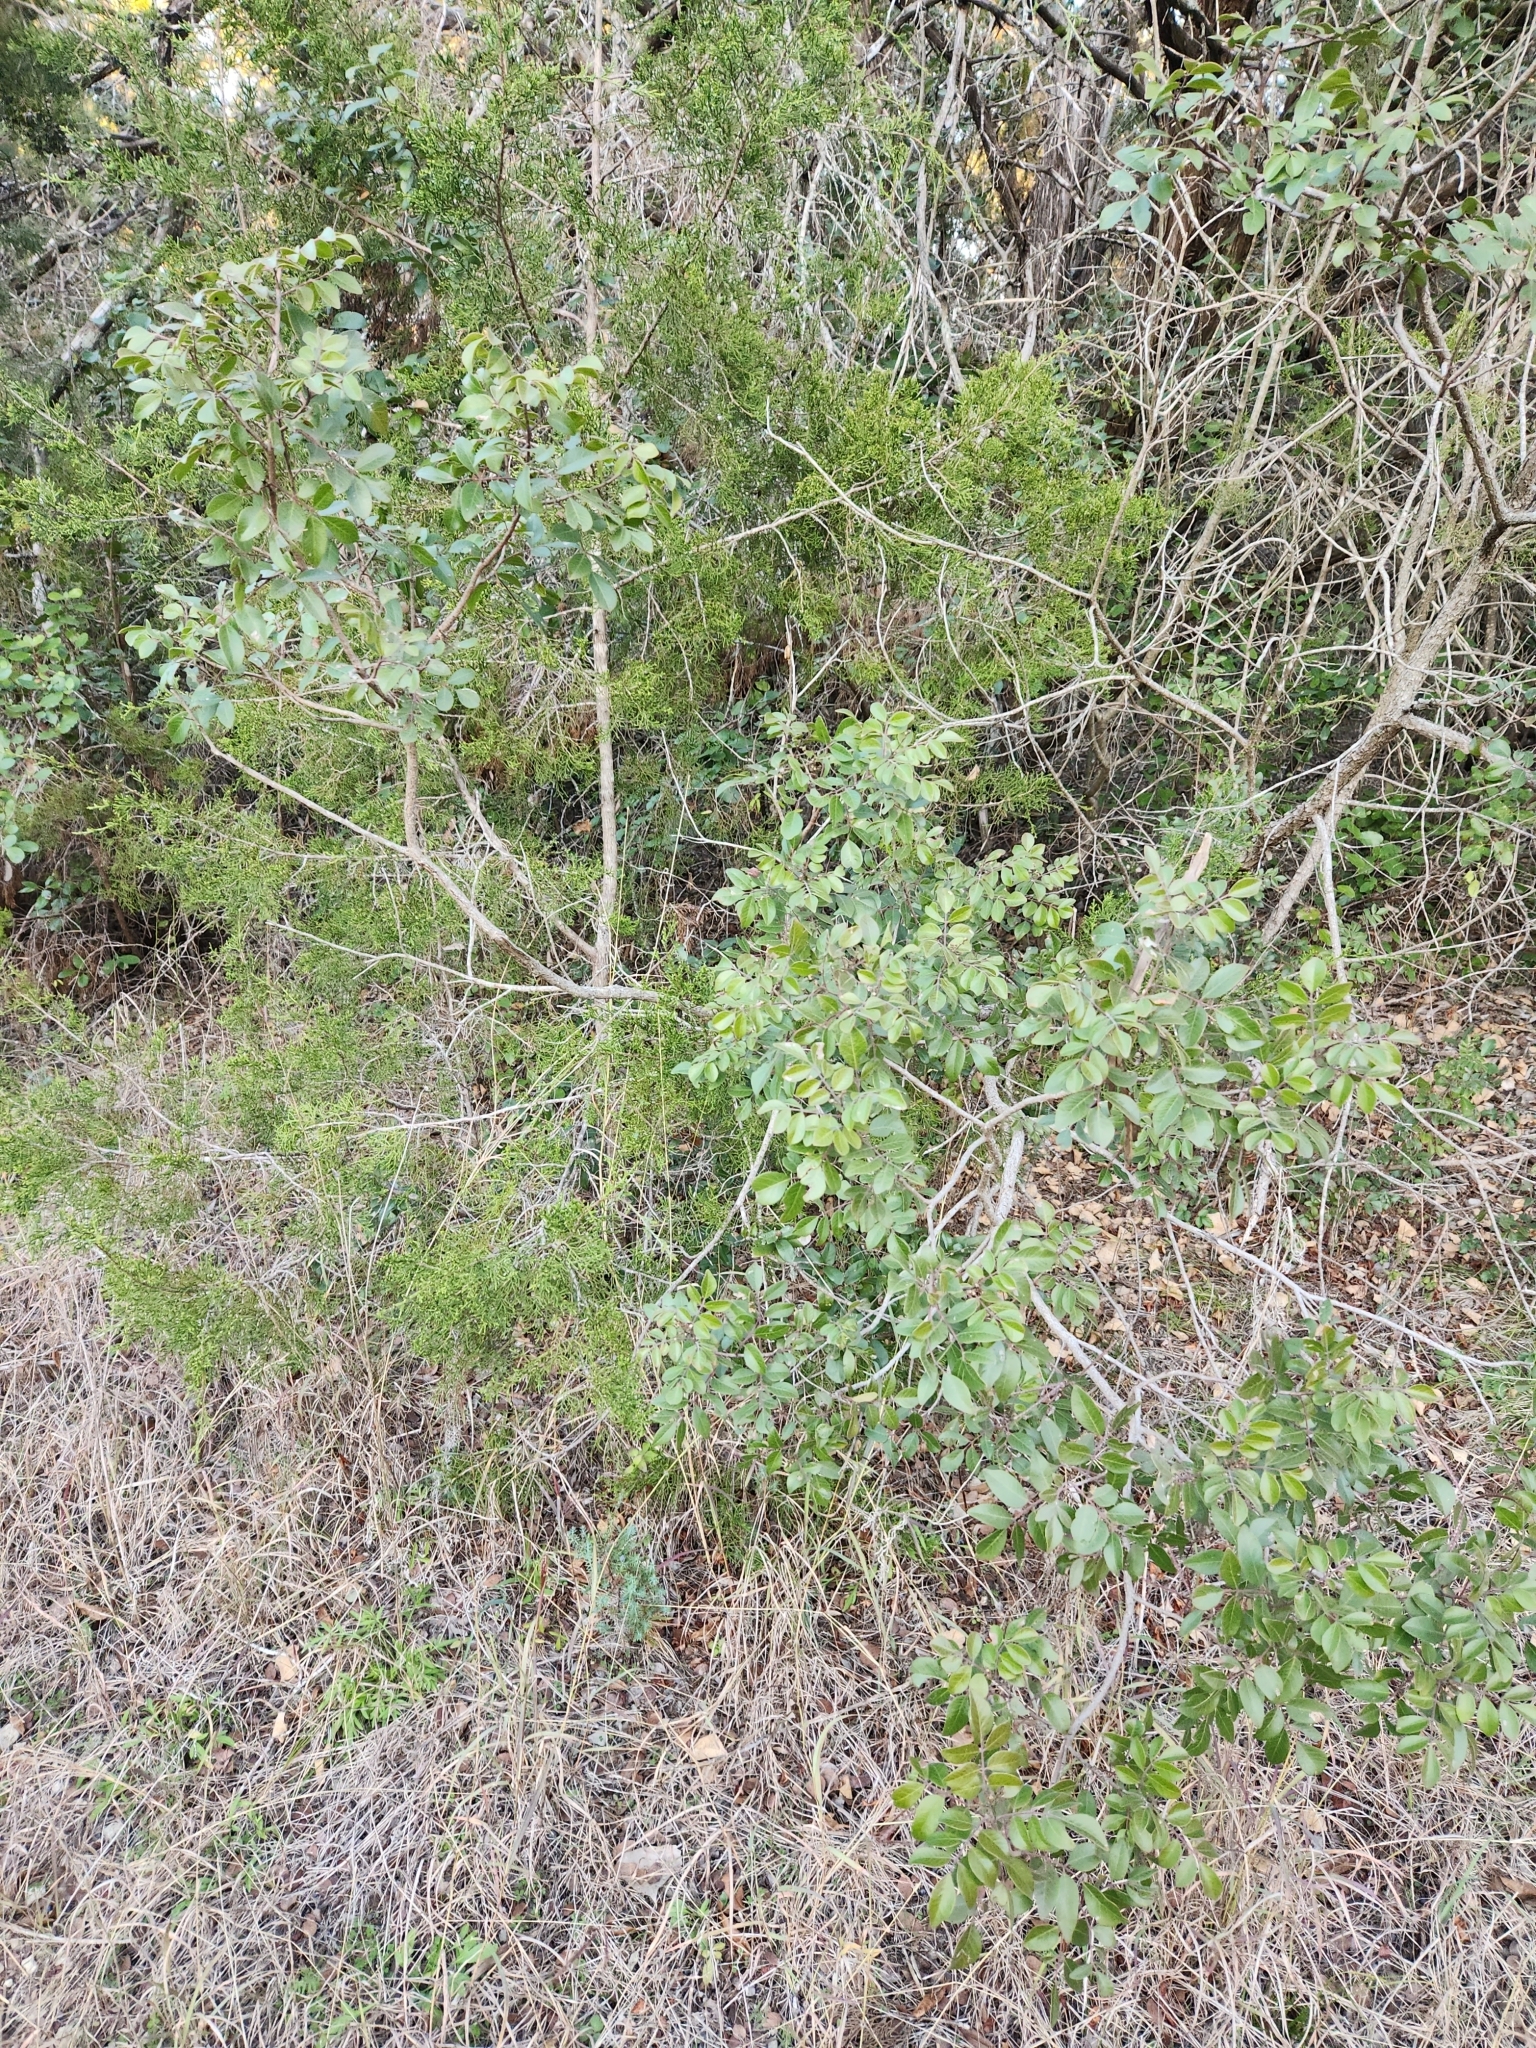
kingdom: Plantae
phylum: Tracheophyta
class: Magnoliopsida
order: Sapindales
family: Anacardiaceae
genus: Rhus
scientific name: Rhus virens
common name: Evergreen sumac
